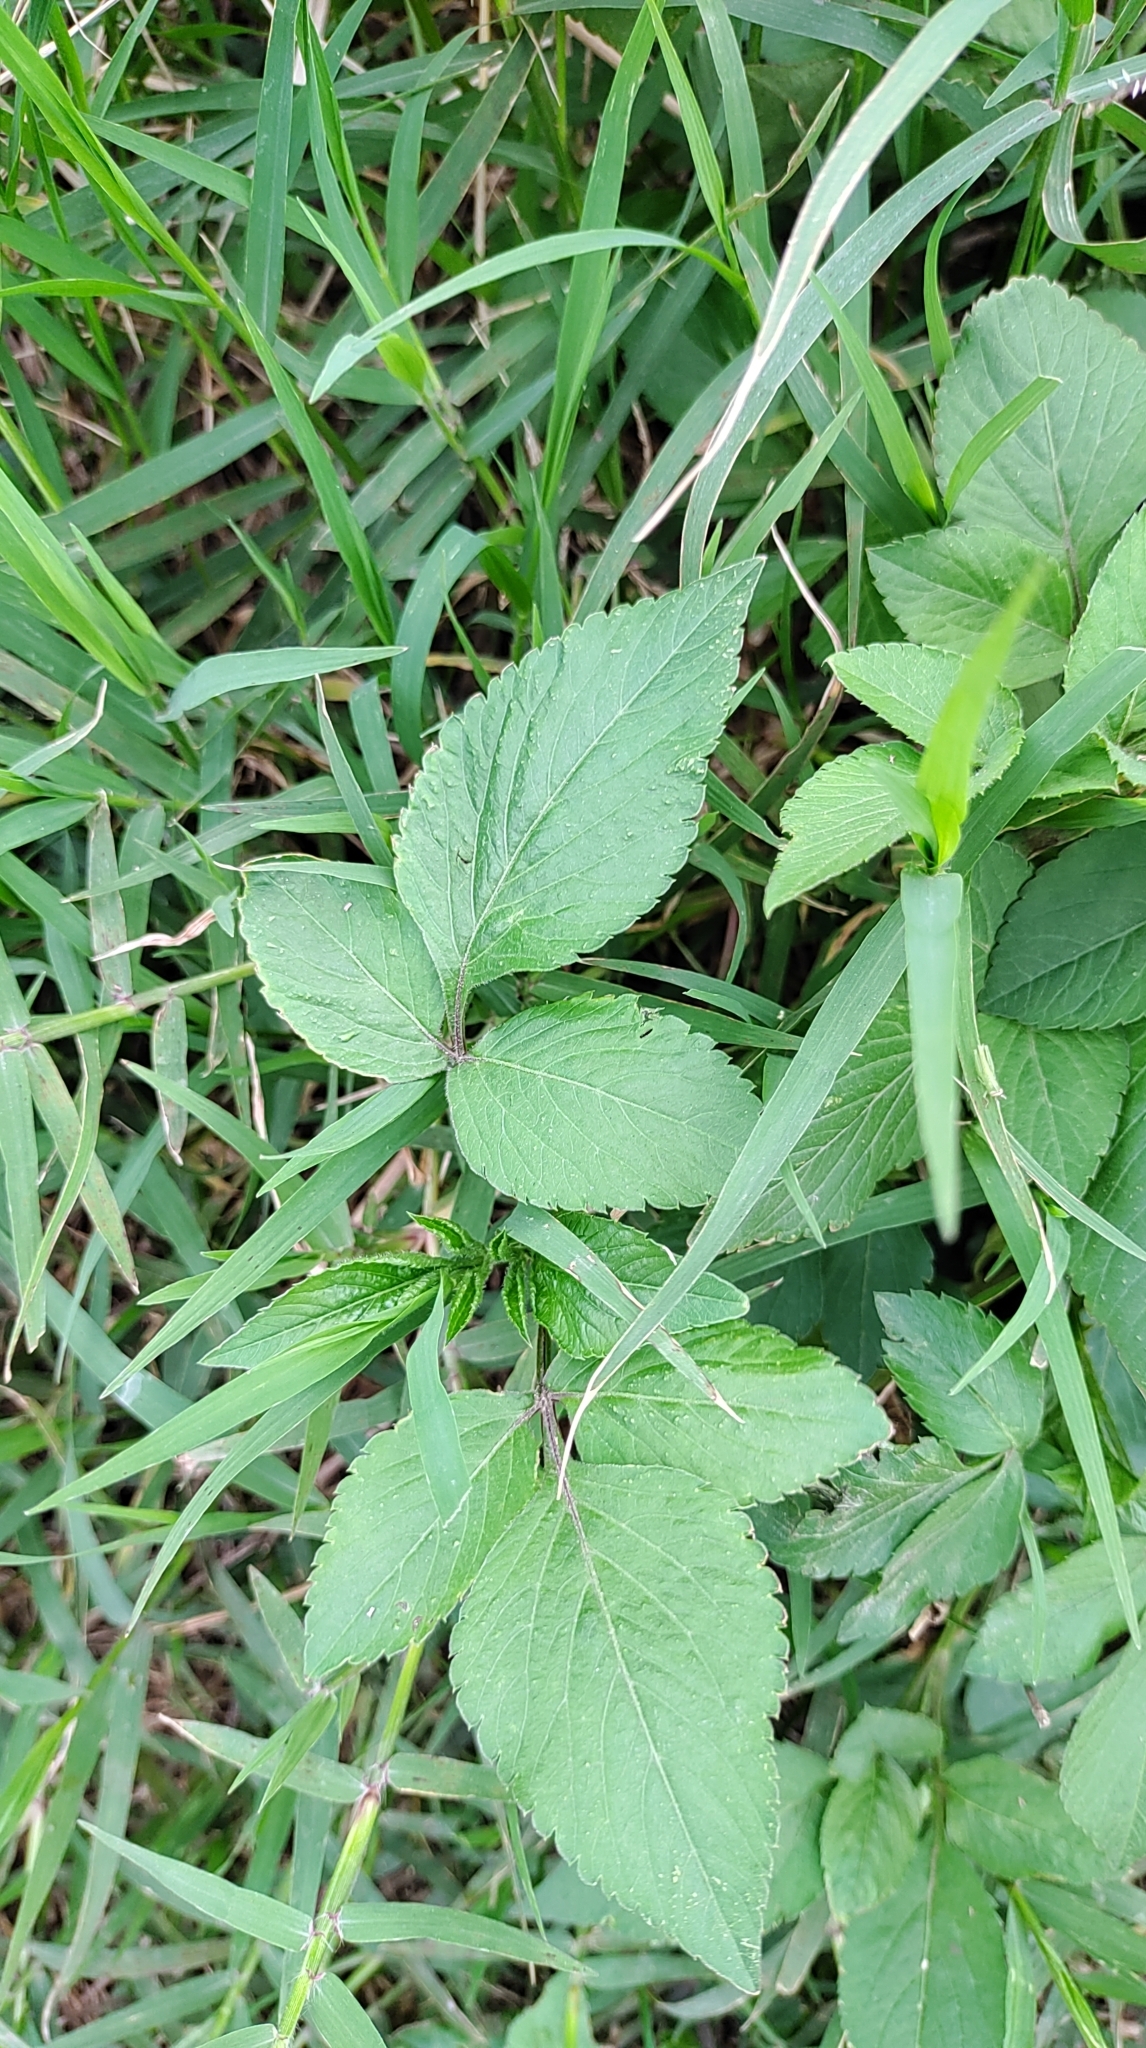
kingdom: Plantae
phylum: Tracheophyta
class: Magnoliopsida
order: Asterales
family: Asteraceae
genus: Bidens
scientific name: Bidens alba
